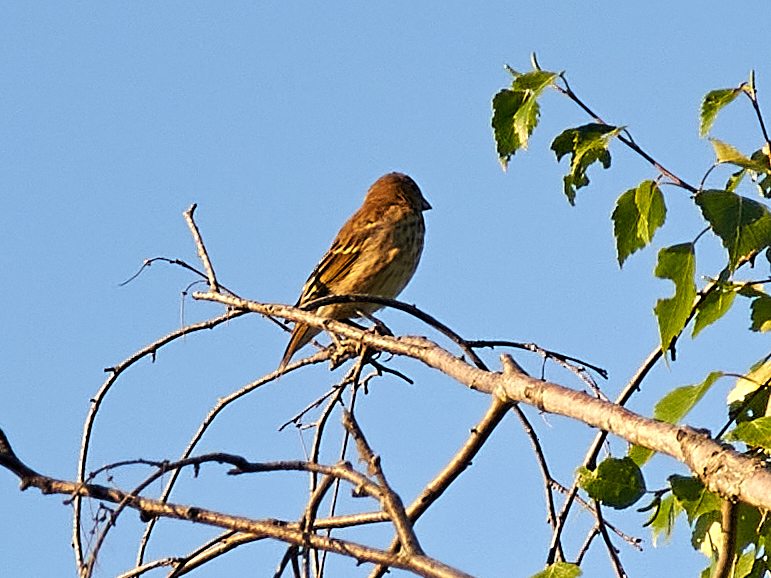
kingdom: Animalia
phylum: Chordata
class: Aves
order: Passeriformes
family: Fringillidae
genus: Carpodacus
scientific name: Carpodacus erythrinus
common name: Common rosefinch
